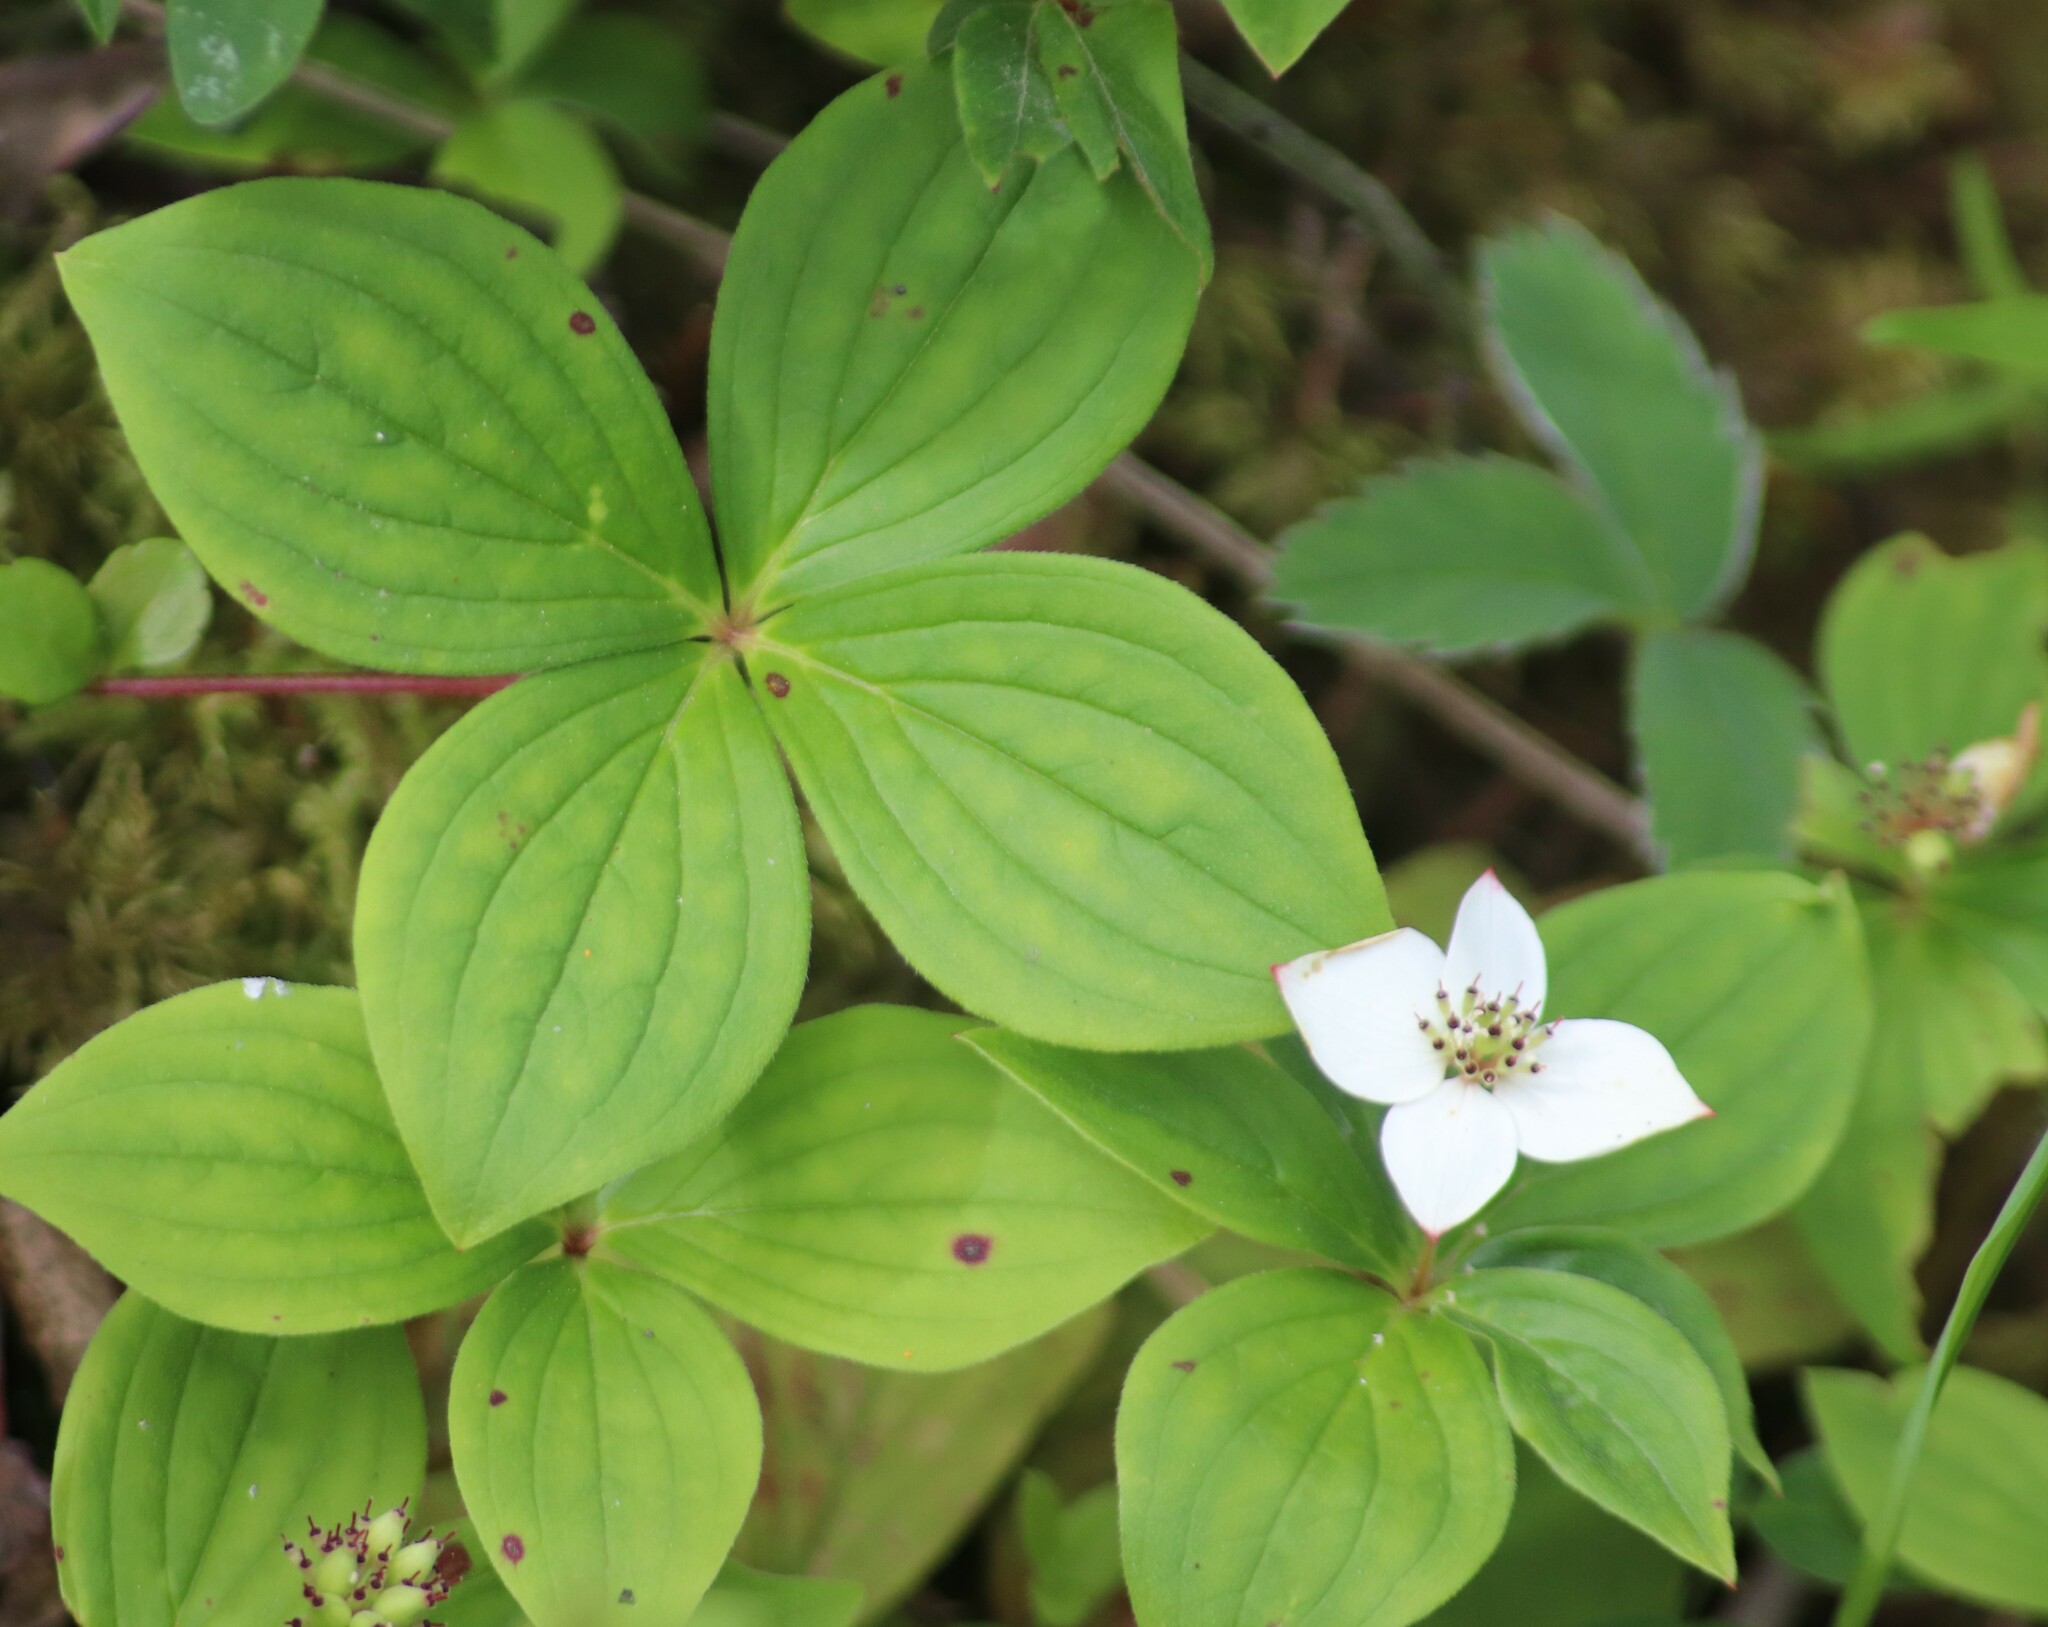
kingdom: Plantae
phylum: Tracheophyta
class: Magnoliopsida
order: Cornales
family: Cornaceae
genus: Cornus
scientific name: Cornus canadensis
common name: Creeping dogwood
